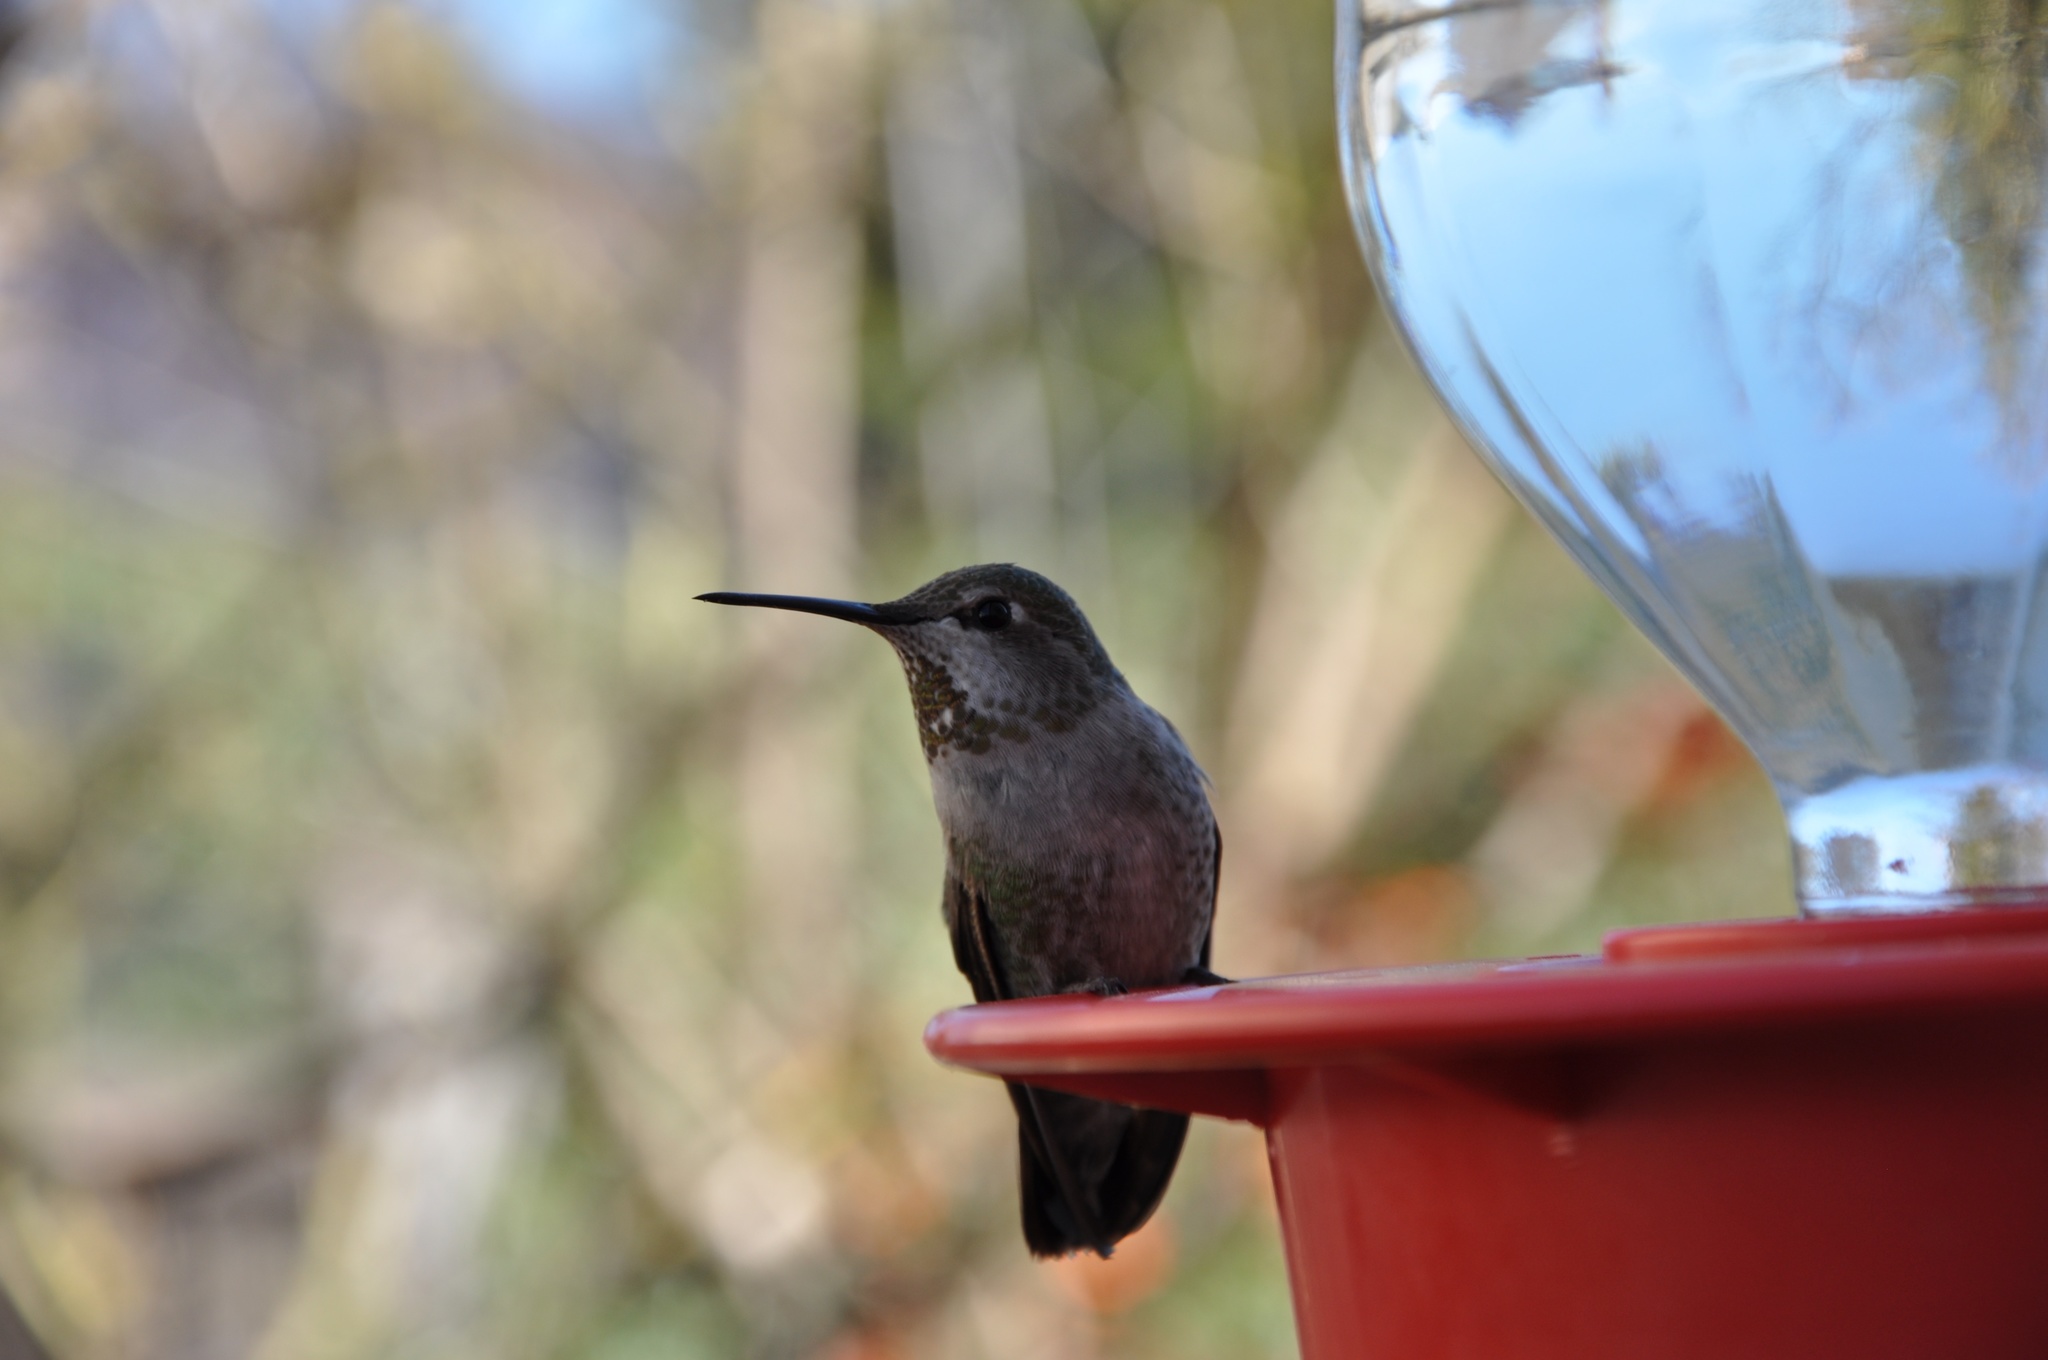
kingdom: Animalia
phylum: Chordata
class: Aves
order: Apodiformes
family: Trochilidae
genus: Calypte
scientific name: Calypte anna
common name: Anna's hummingbird
